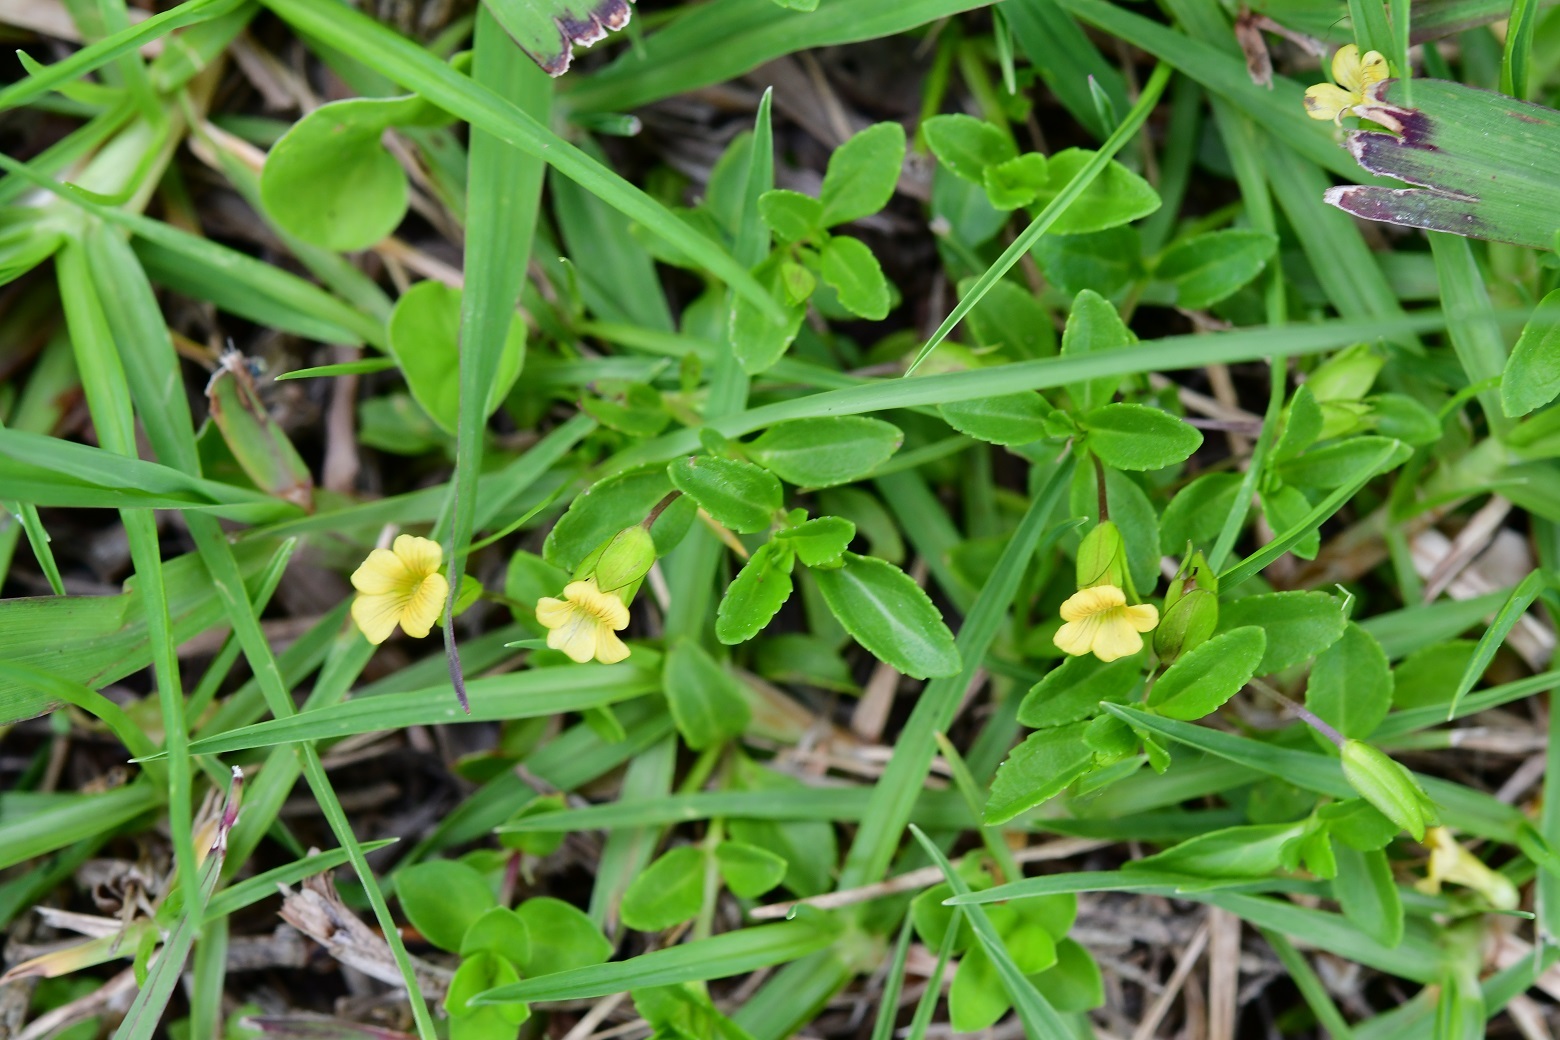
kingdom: Plantae
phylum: Tracheophyta
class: Magnoliopsida
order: Lamiales
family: Plantaginaceae
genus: Mecardonia
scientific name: Mecardonia procumbens
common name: Baby jump-up
